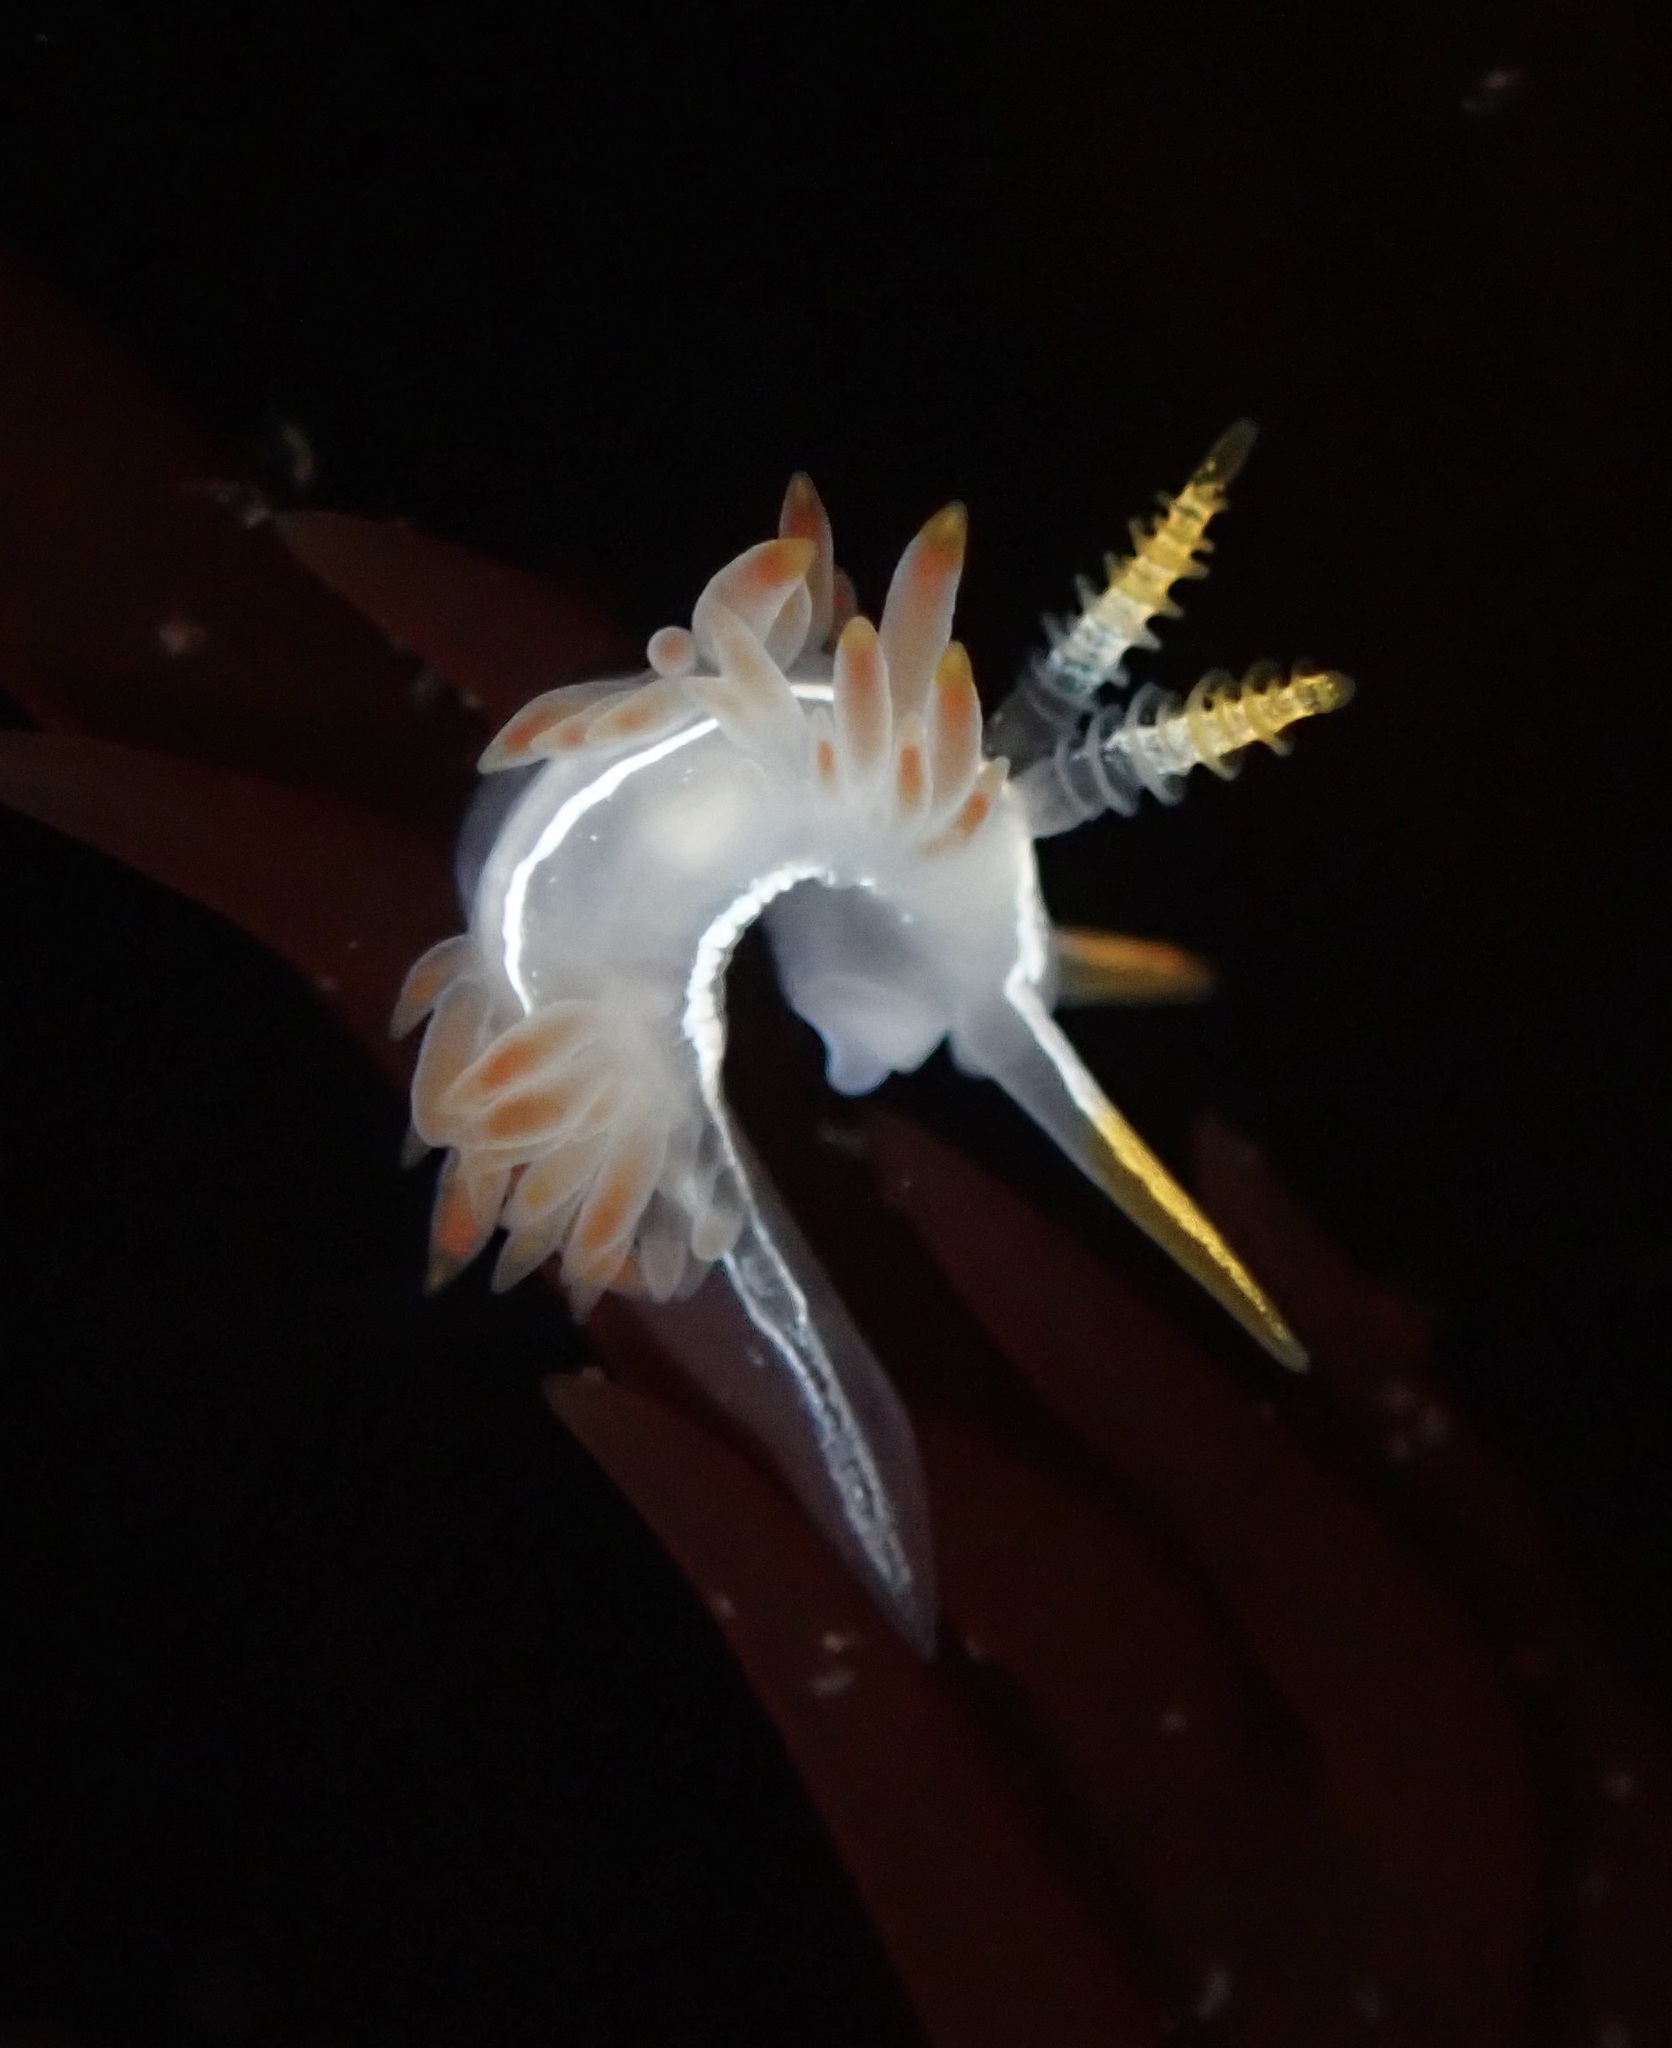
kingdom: Animalia
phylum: Mollusca
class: Gastropoda
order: Nudibranchia
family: Coryphellidae
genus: Coryphella
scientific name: Coryphella trilineata
